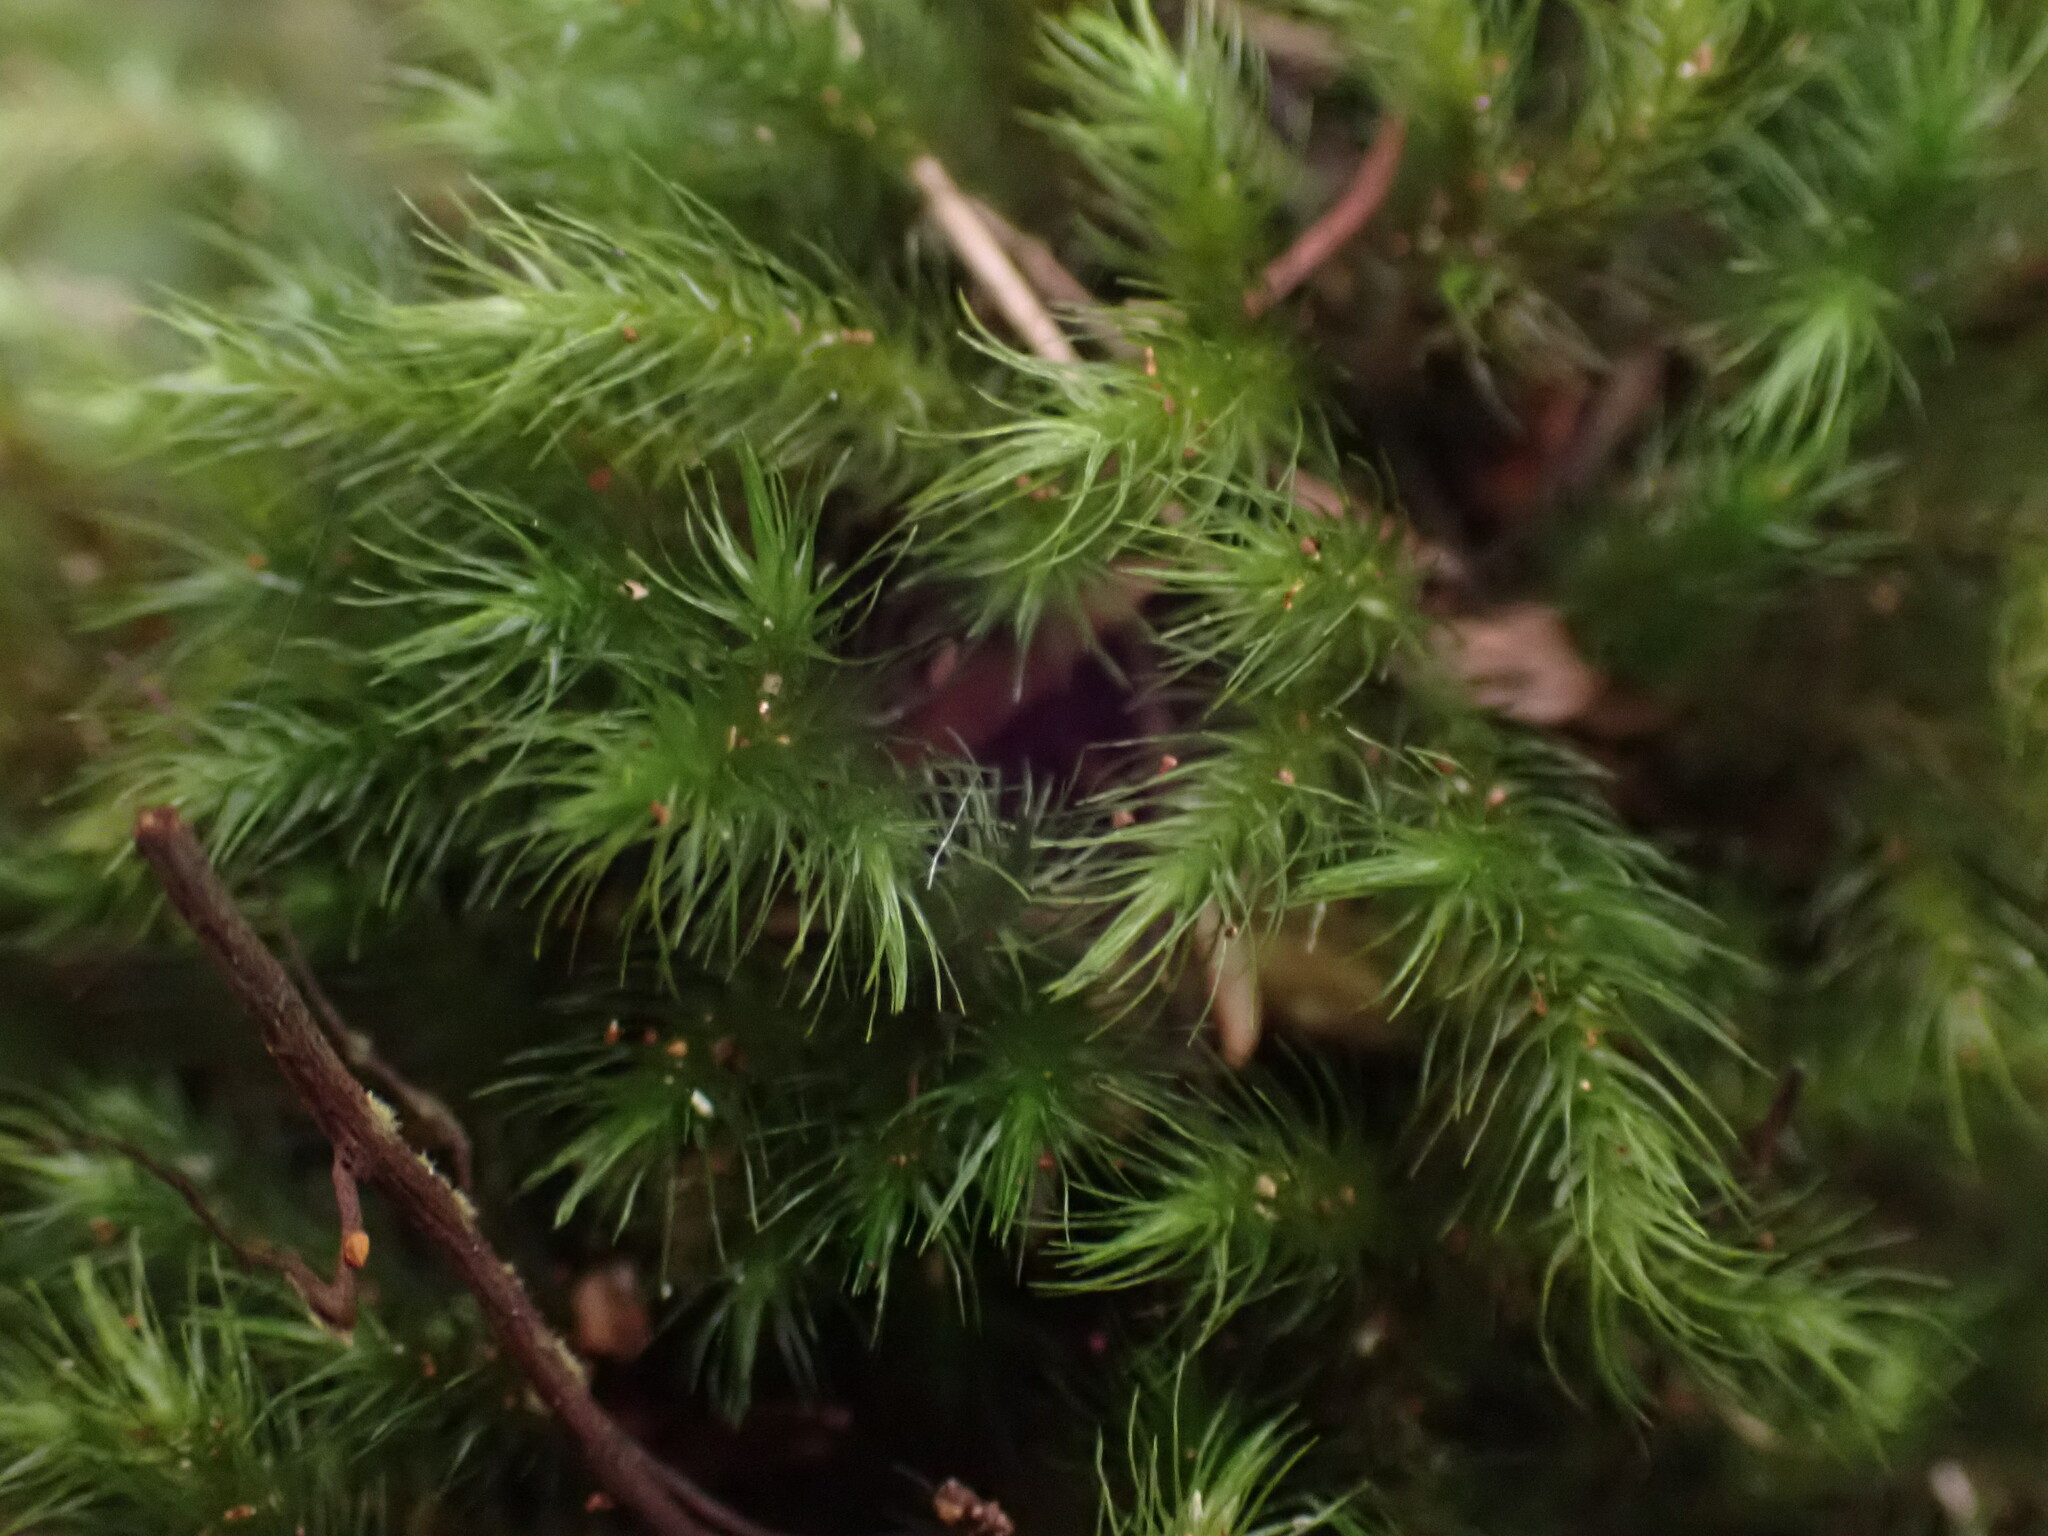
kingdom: Plantae
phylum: Bryophyta
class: Bryopsida
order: Hypnales
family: Neckeraceae
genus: Echinodiopsis
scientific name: Echinodiopsis hispida
